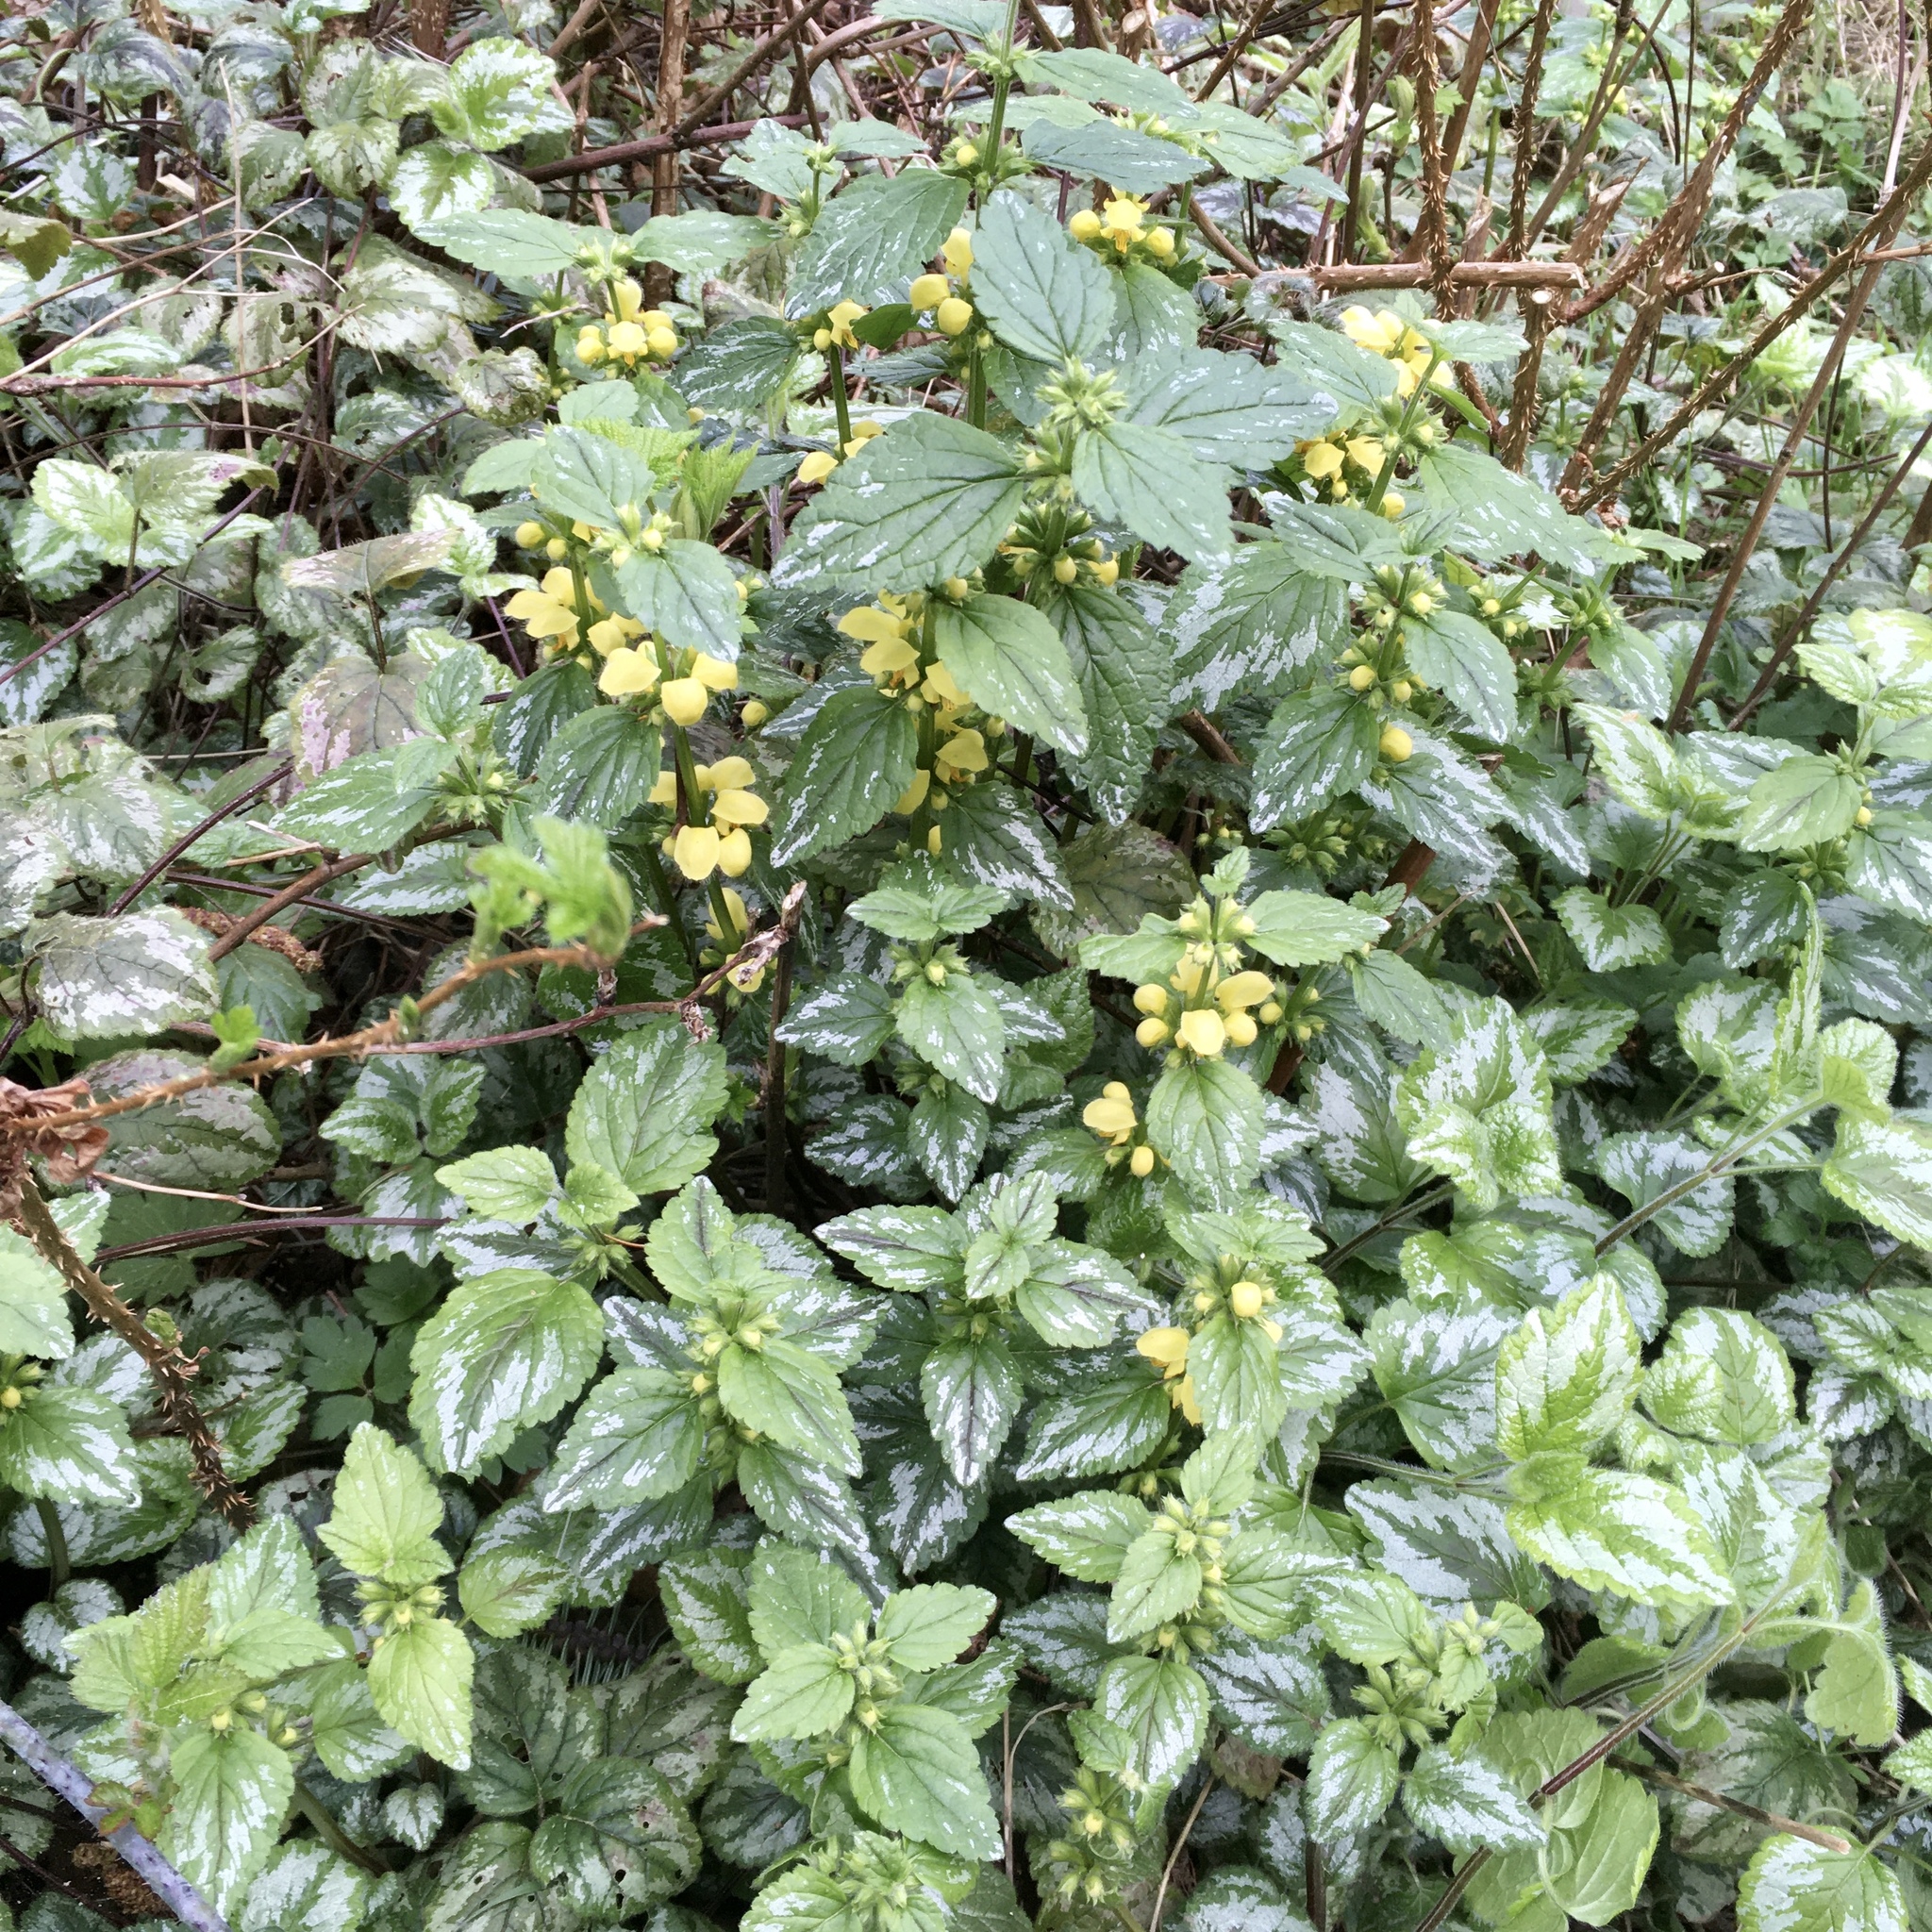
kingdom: Plantae
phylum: Tracheophyta
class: Magnoliopsida
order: Lamiales
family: Lamiaceae
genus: Lamium
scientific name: Lamium galeobdolon
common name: Yellow archangel
